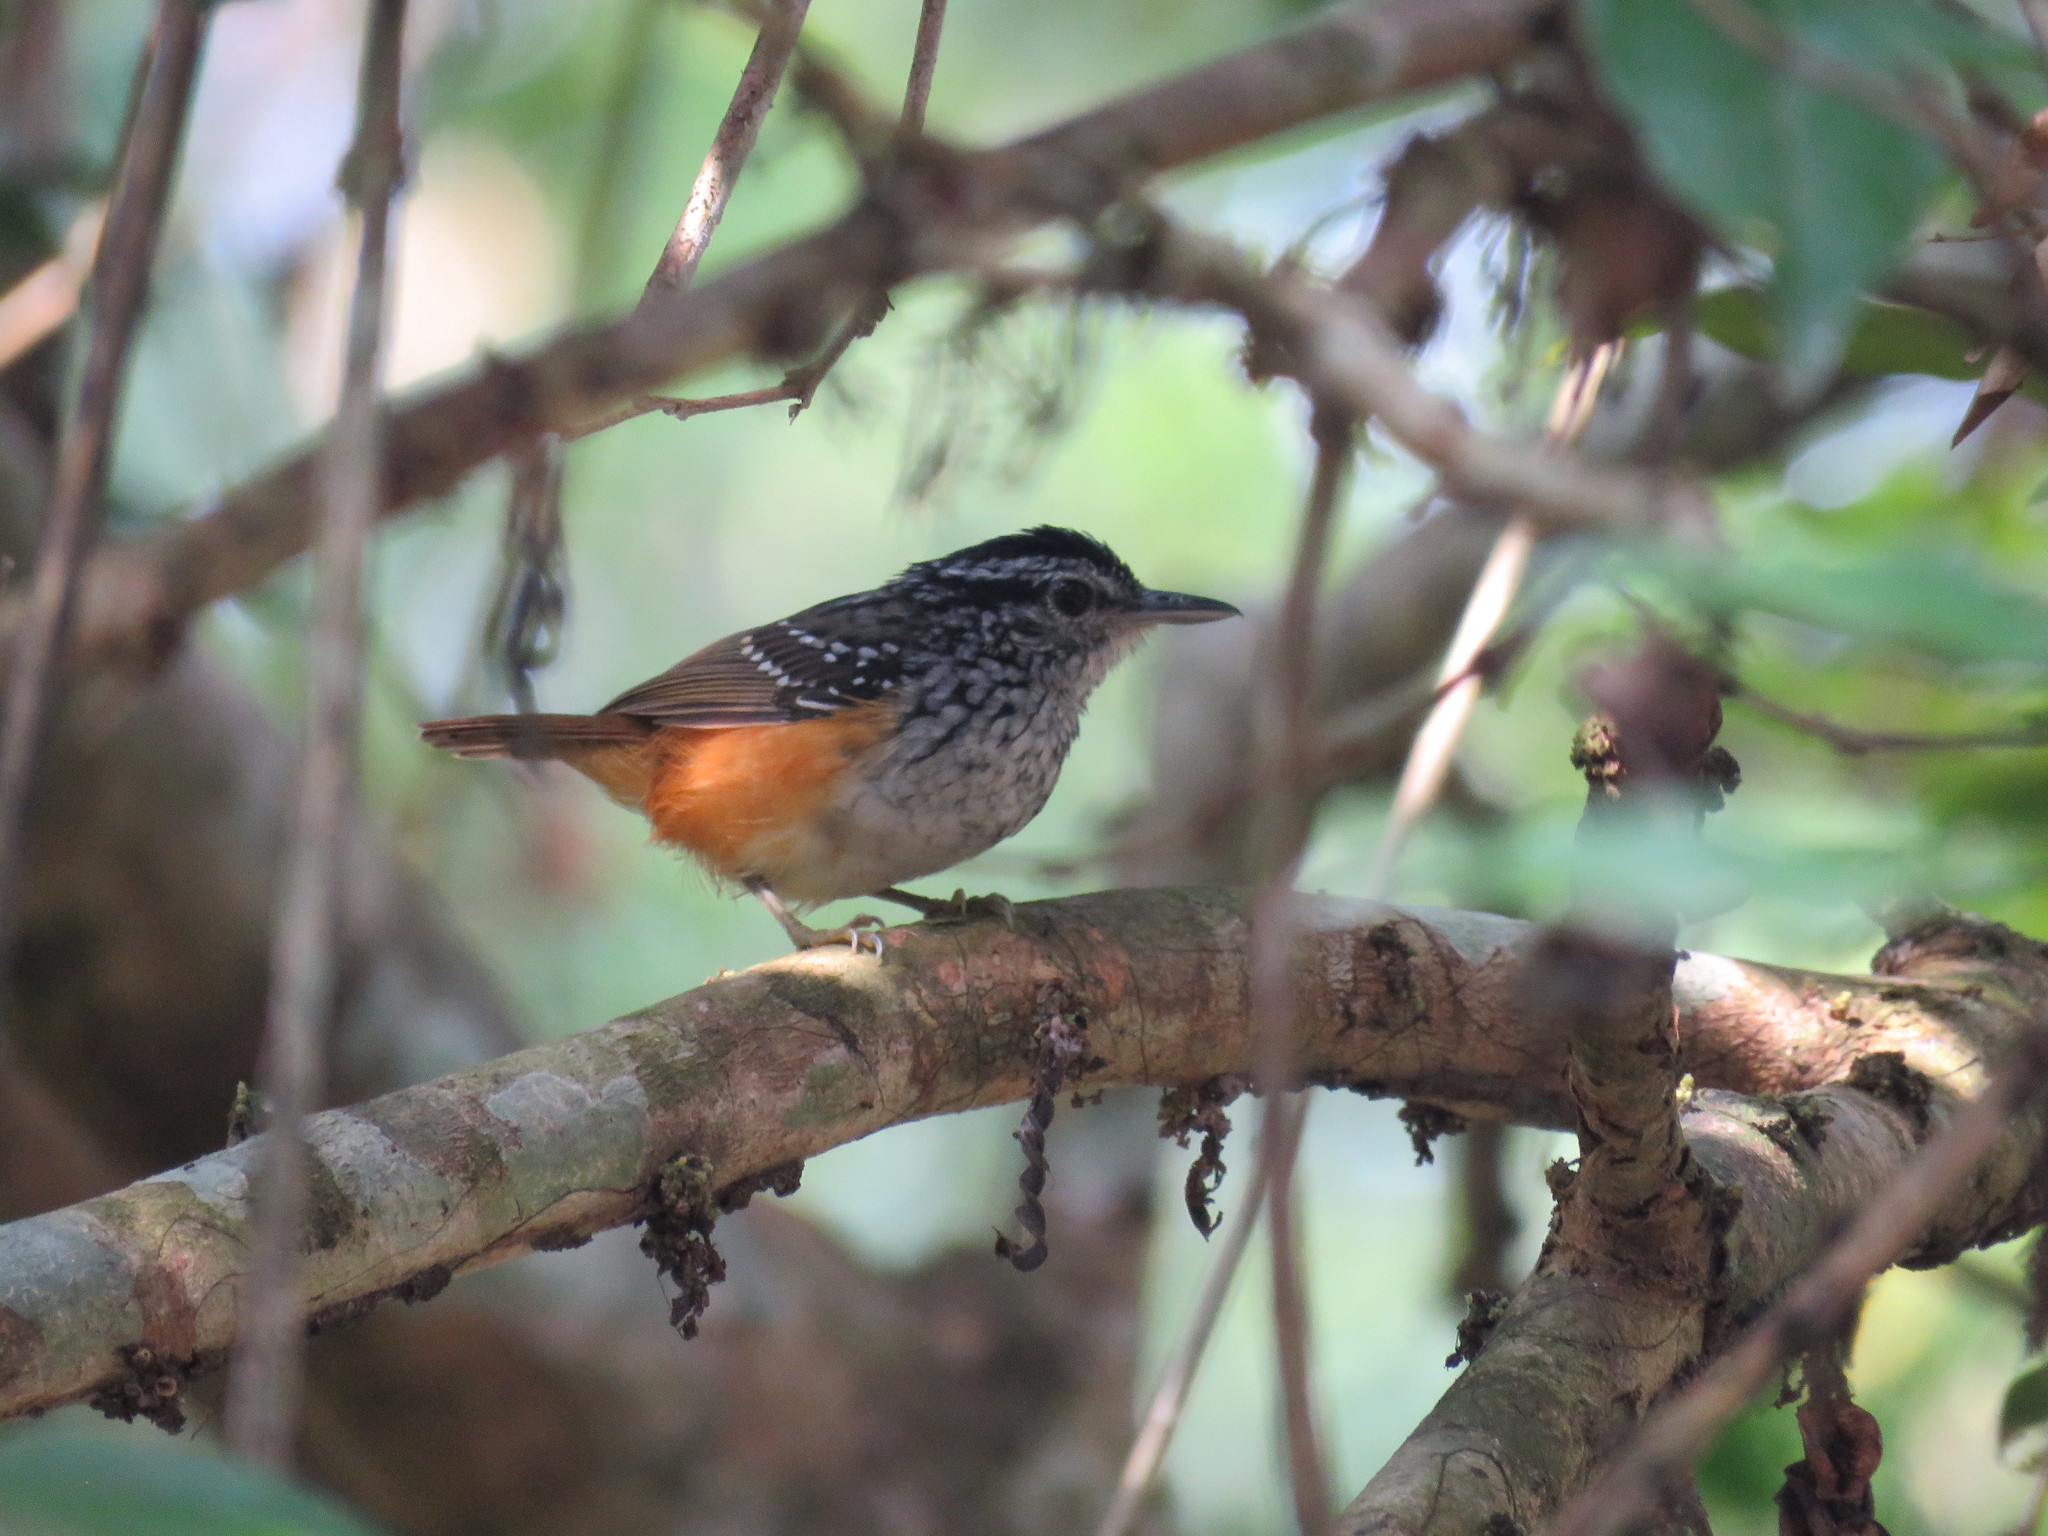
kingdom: Animalia
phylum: Chordata
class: Aves
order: Passeriformes
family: Thamnophilidae
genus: Hypocnemis
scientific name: Hypocnemis peruviana
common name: Peruvian warbling-antbird
